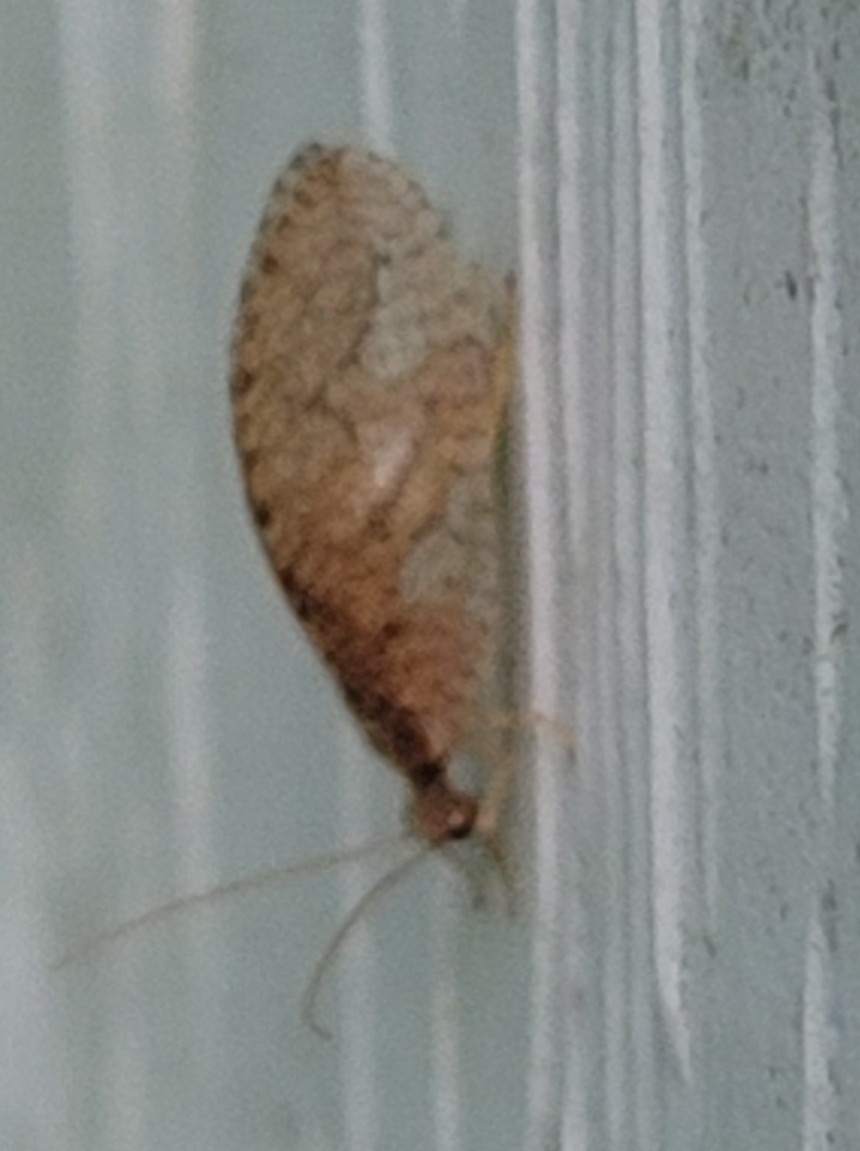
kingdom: Animalia
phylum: Arthropoda
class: Insecta
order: Neuroptera
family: Hemerobiidae
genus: Micromus
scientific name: Micromus posticus
